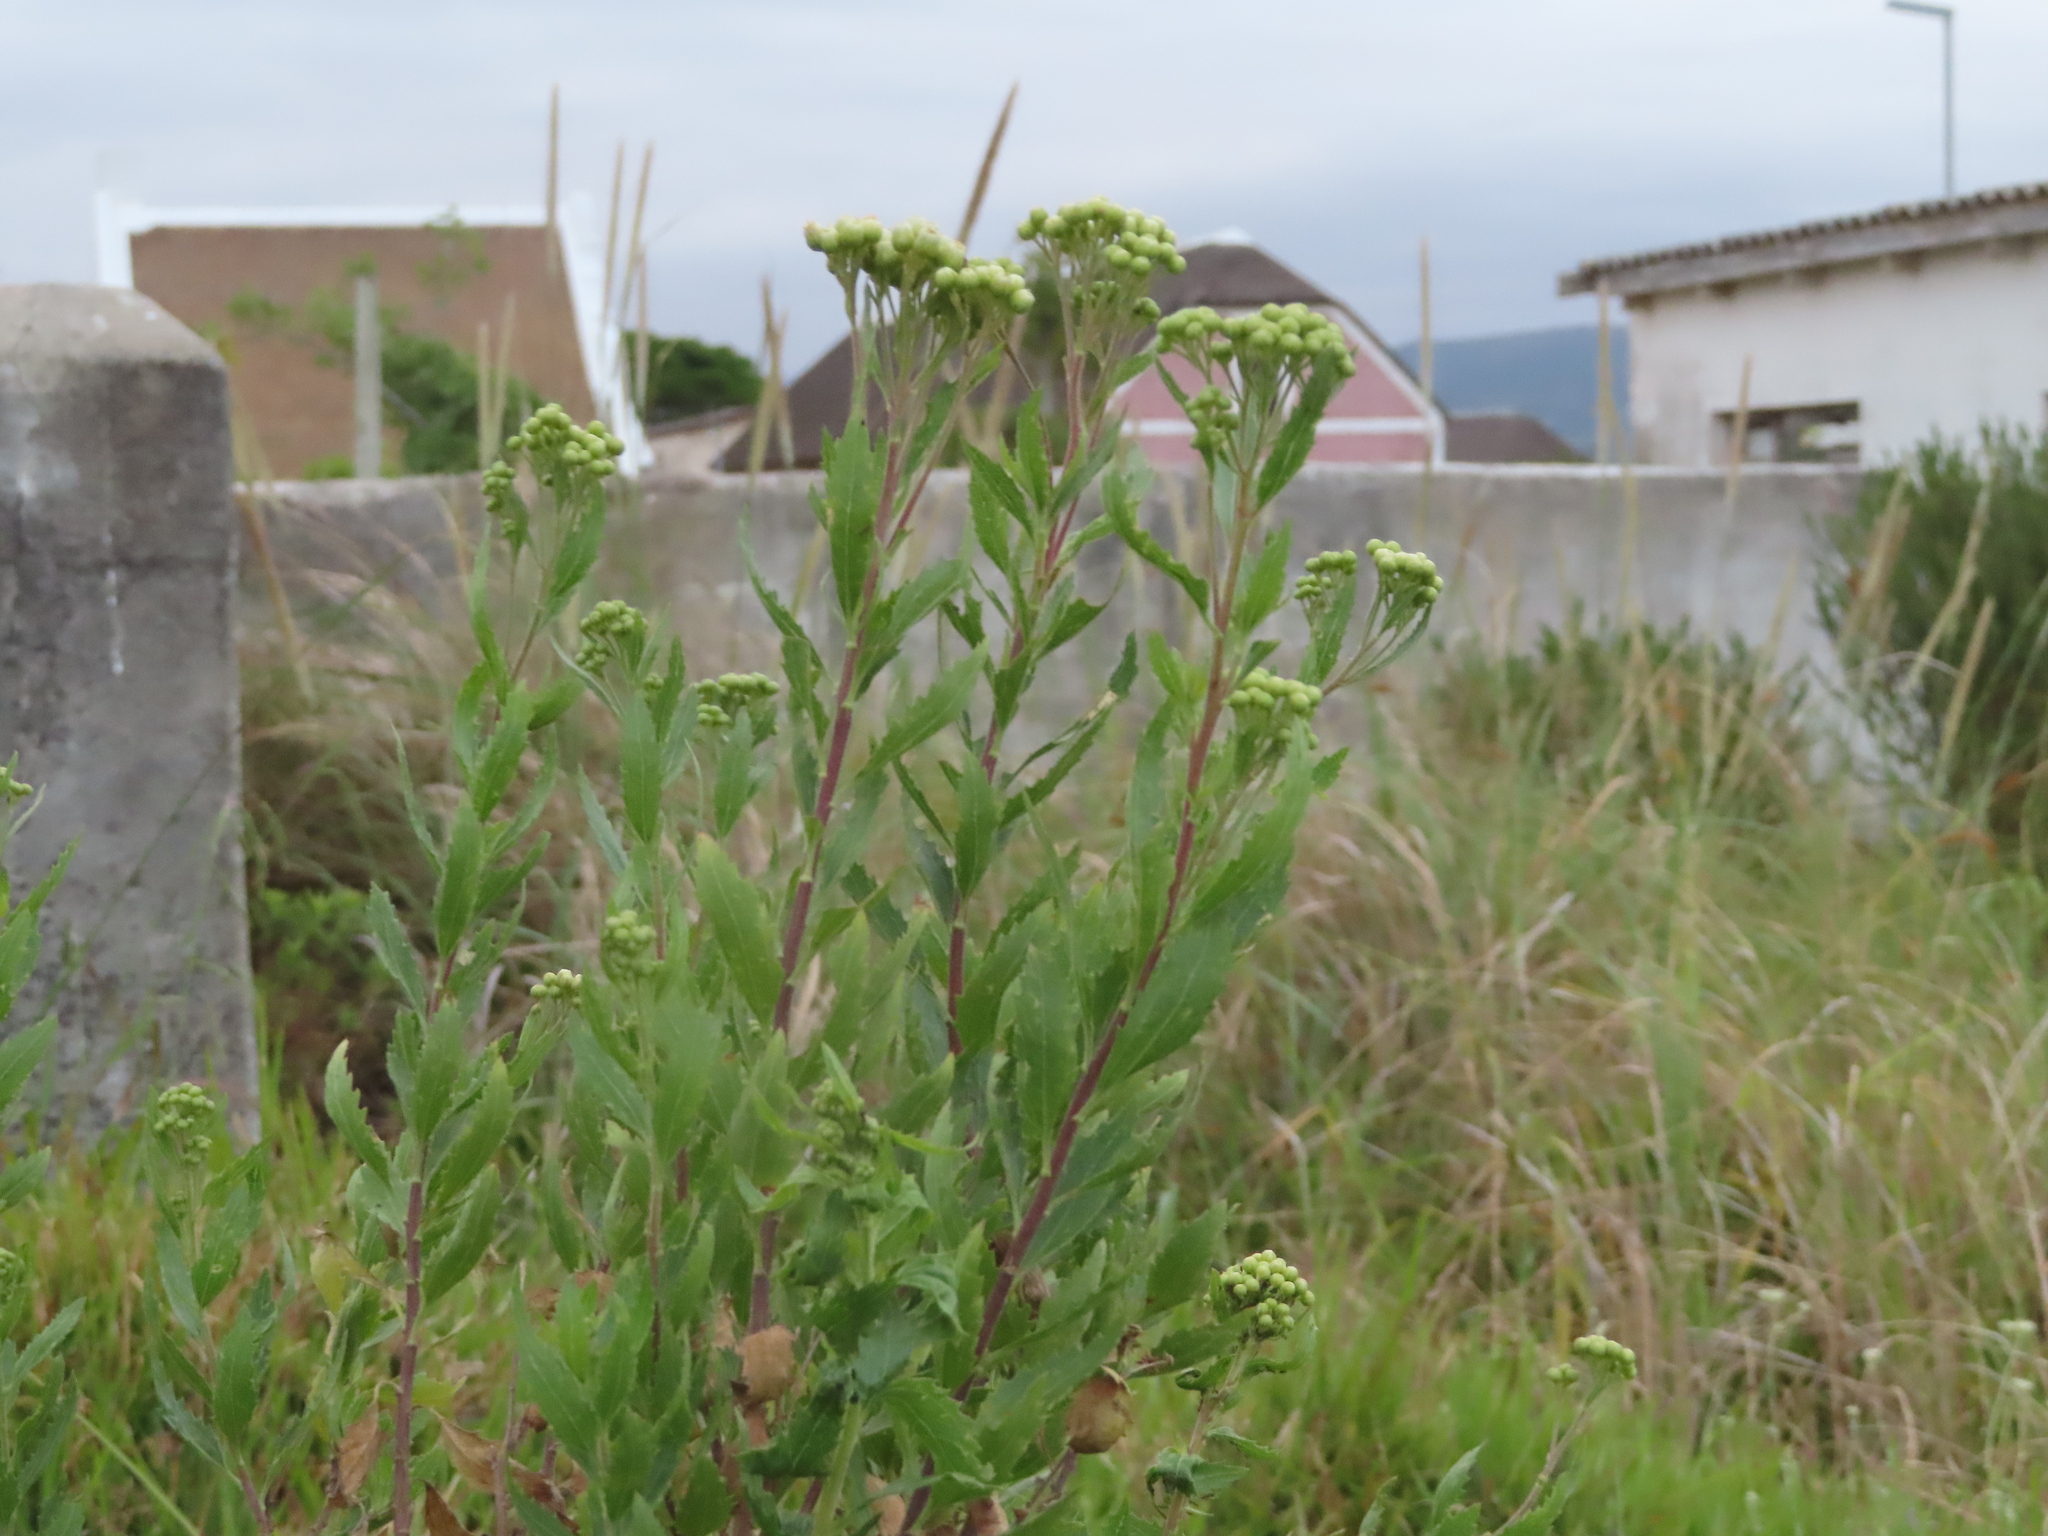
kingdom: Plantae
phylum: Tracheophyta
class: Magnoliopsida
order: Asterales
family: Asteraceae
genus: Nidorella
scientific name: Nidorella ivifolia
